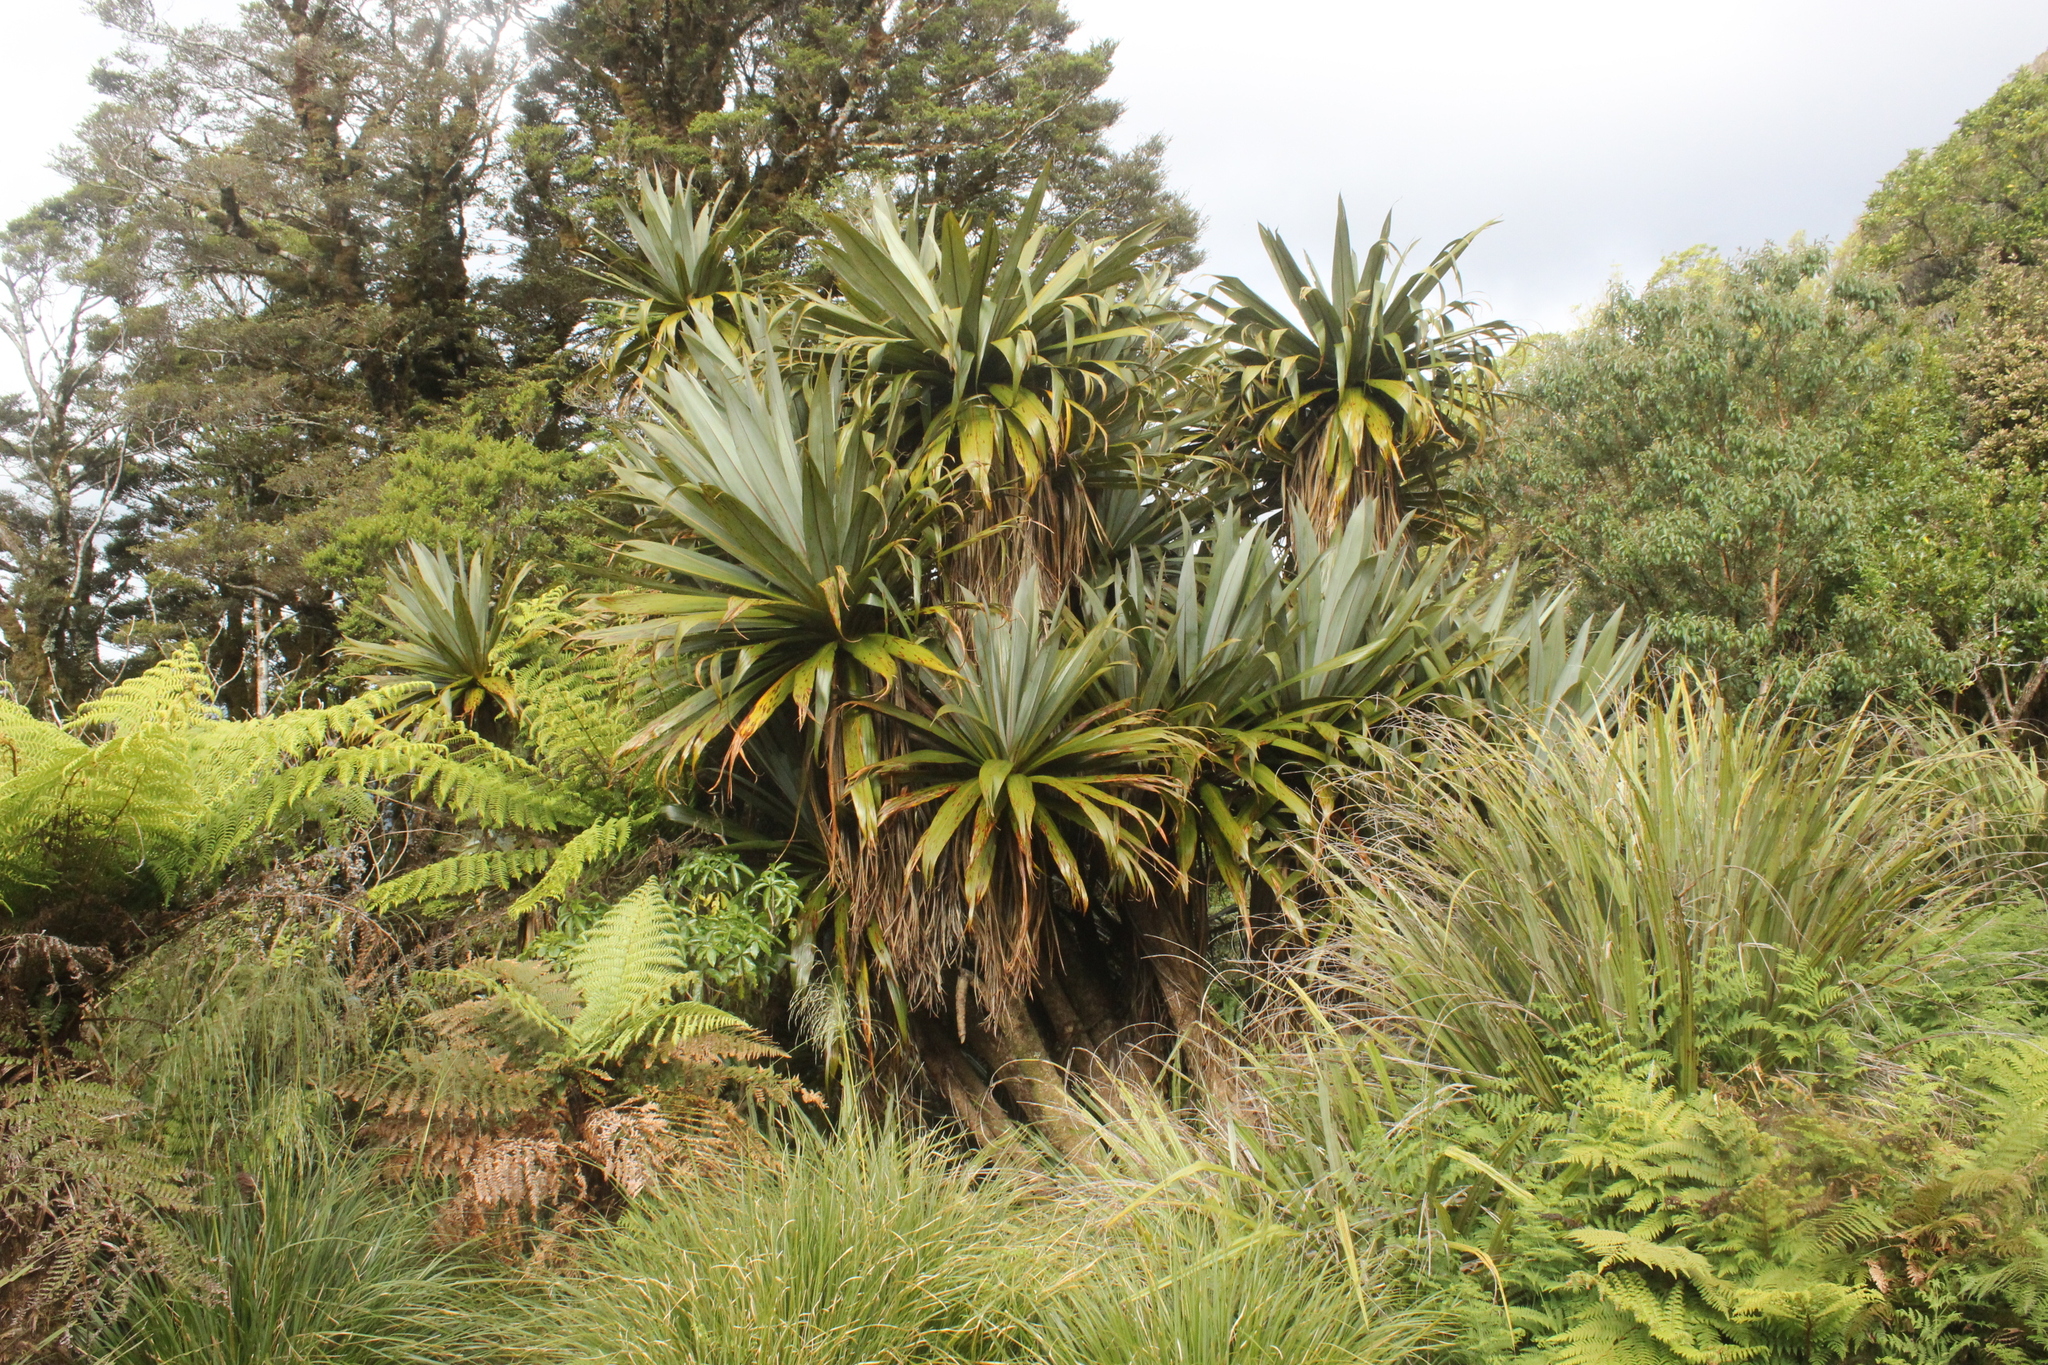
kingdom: Plantae
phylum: Tracheophyta
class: Liliopsida
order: Asparagales
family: Asparagaceae
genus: Cordyline
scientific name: Cordyline indivisa
